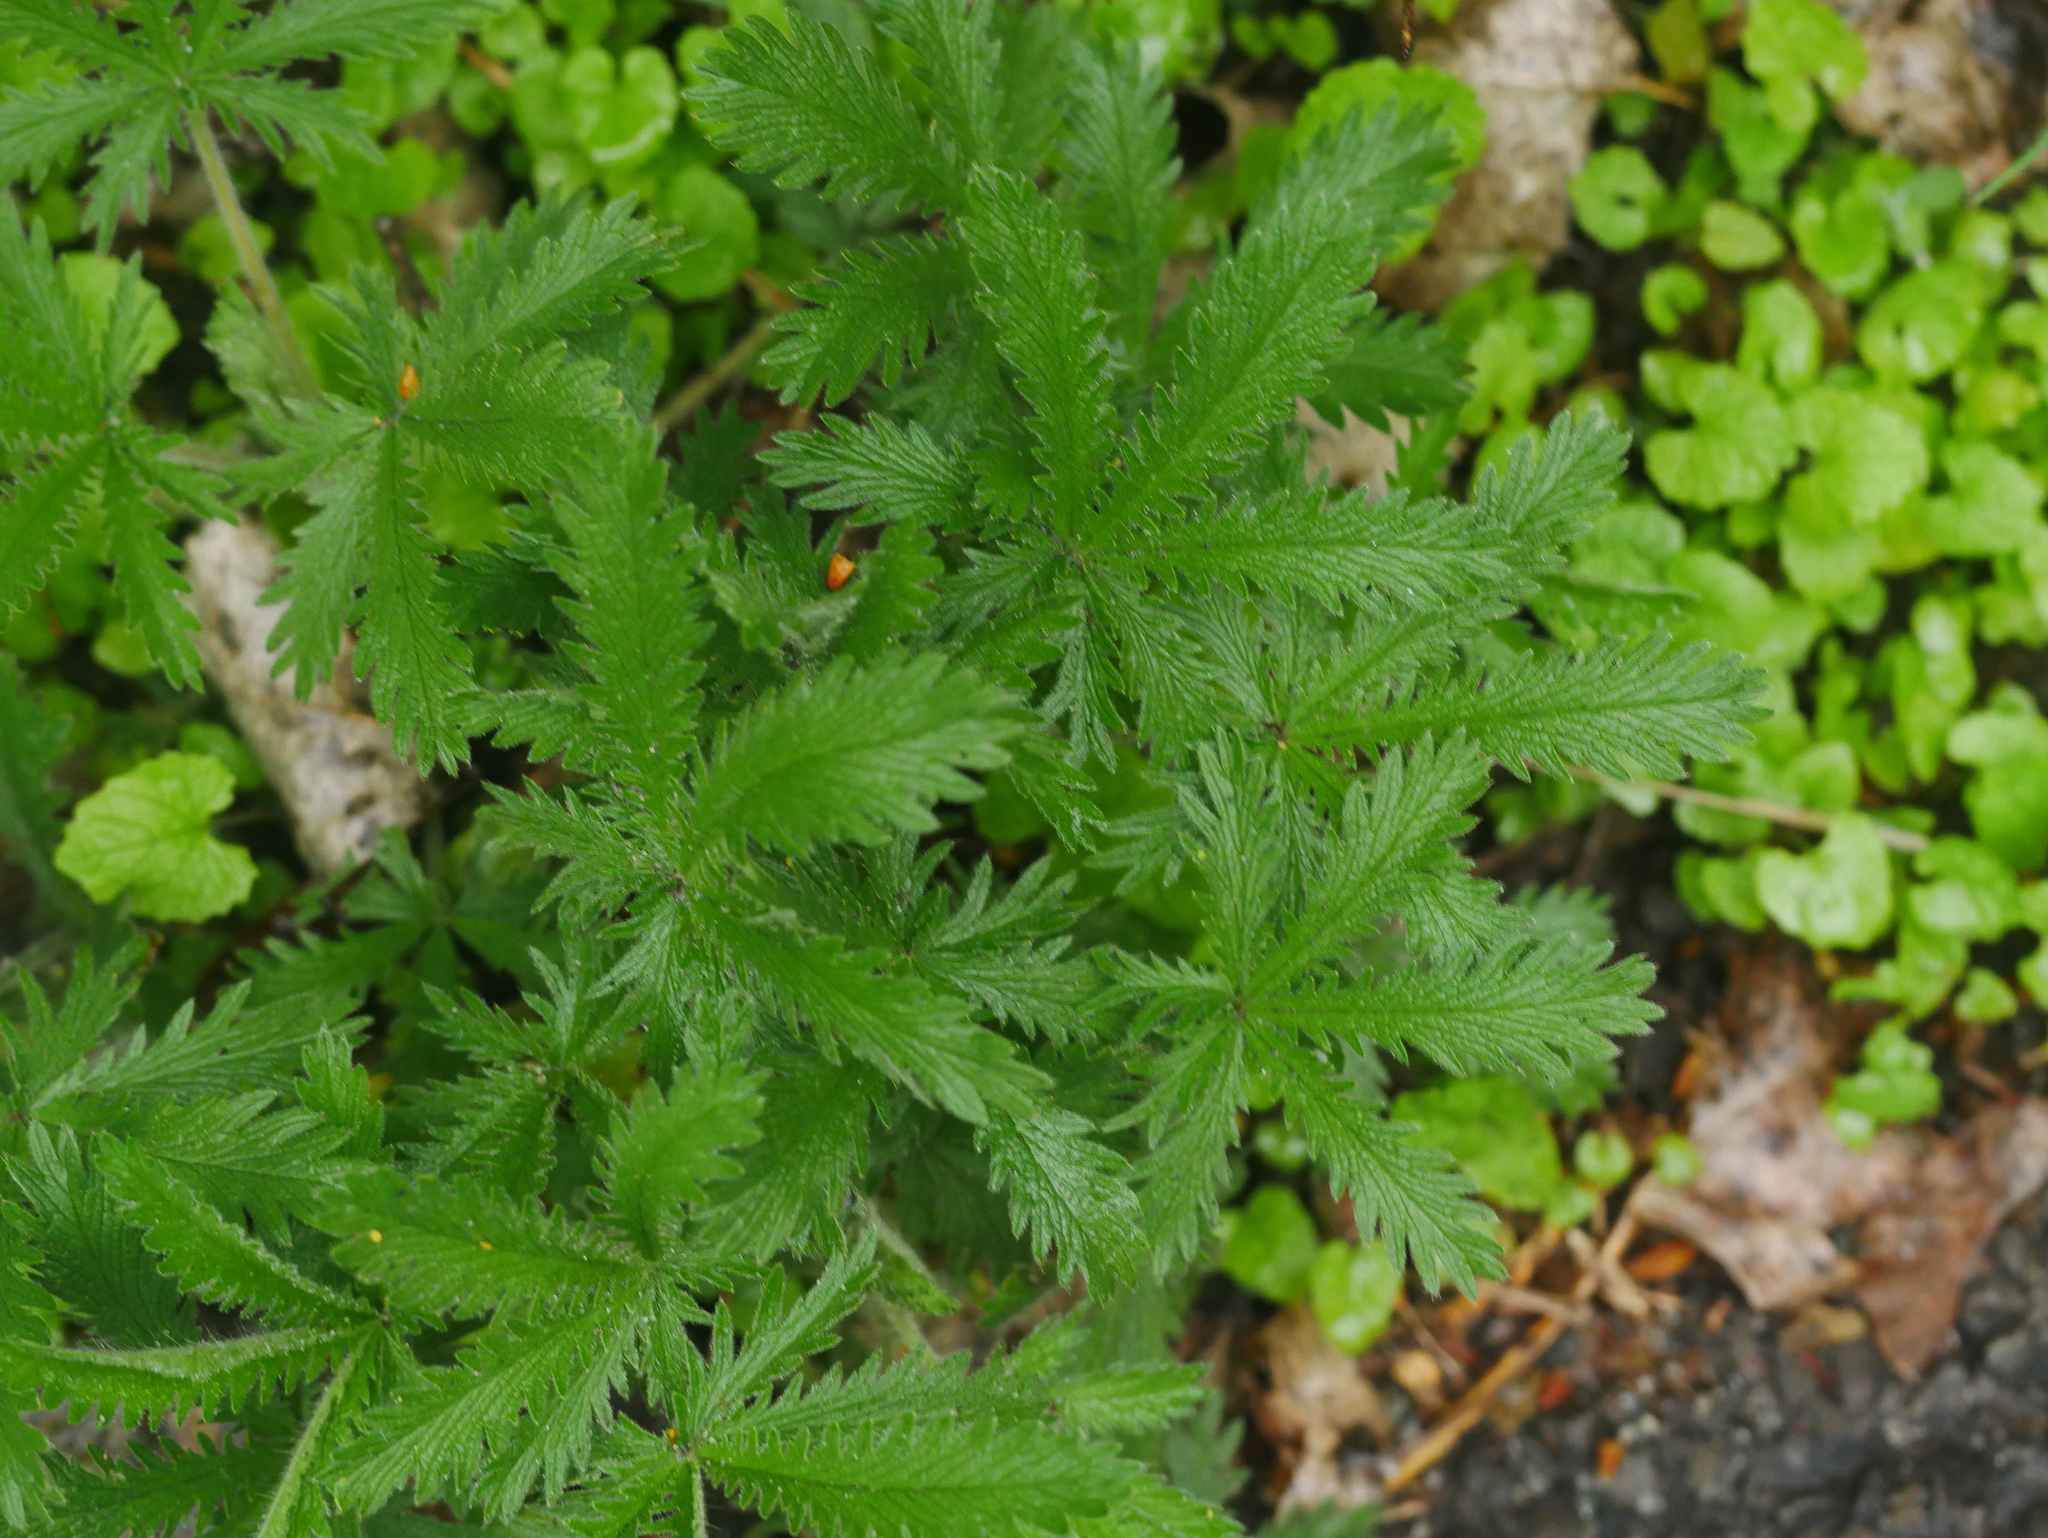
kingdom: Plantae
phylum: Tracheophyta
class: Magnoliopsida
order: Rosales
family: Rosaceae
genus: Potentilla
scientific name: Potentilla recta
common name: Sulphur cinquefoil
